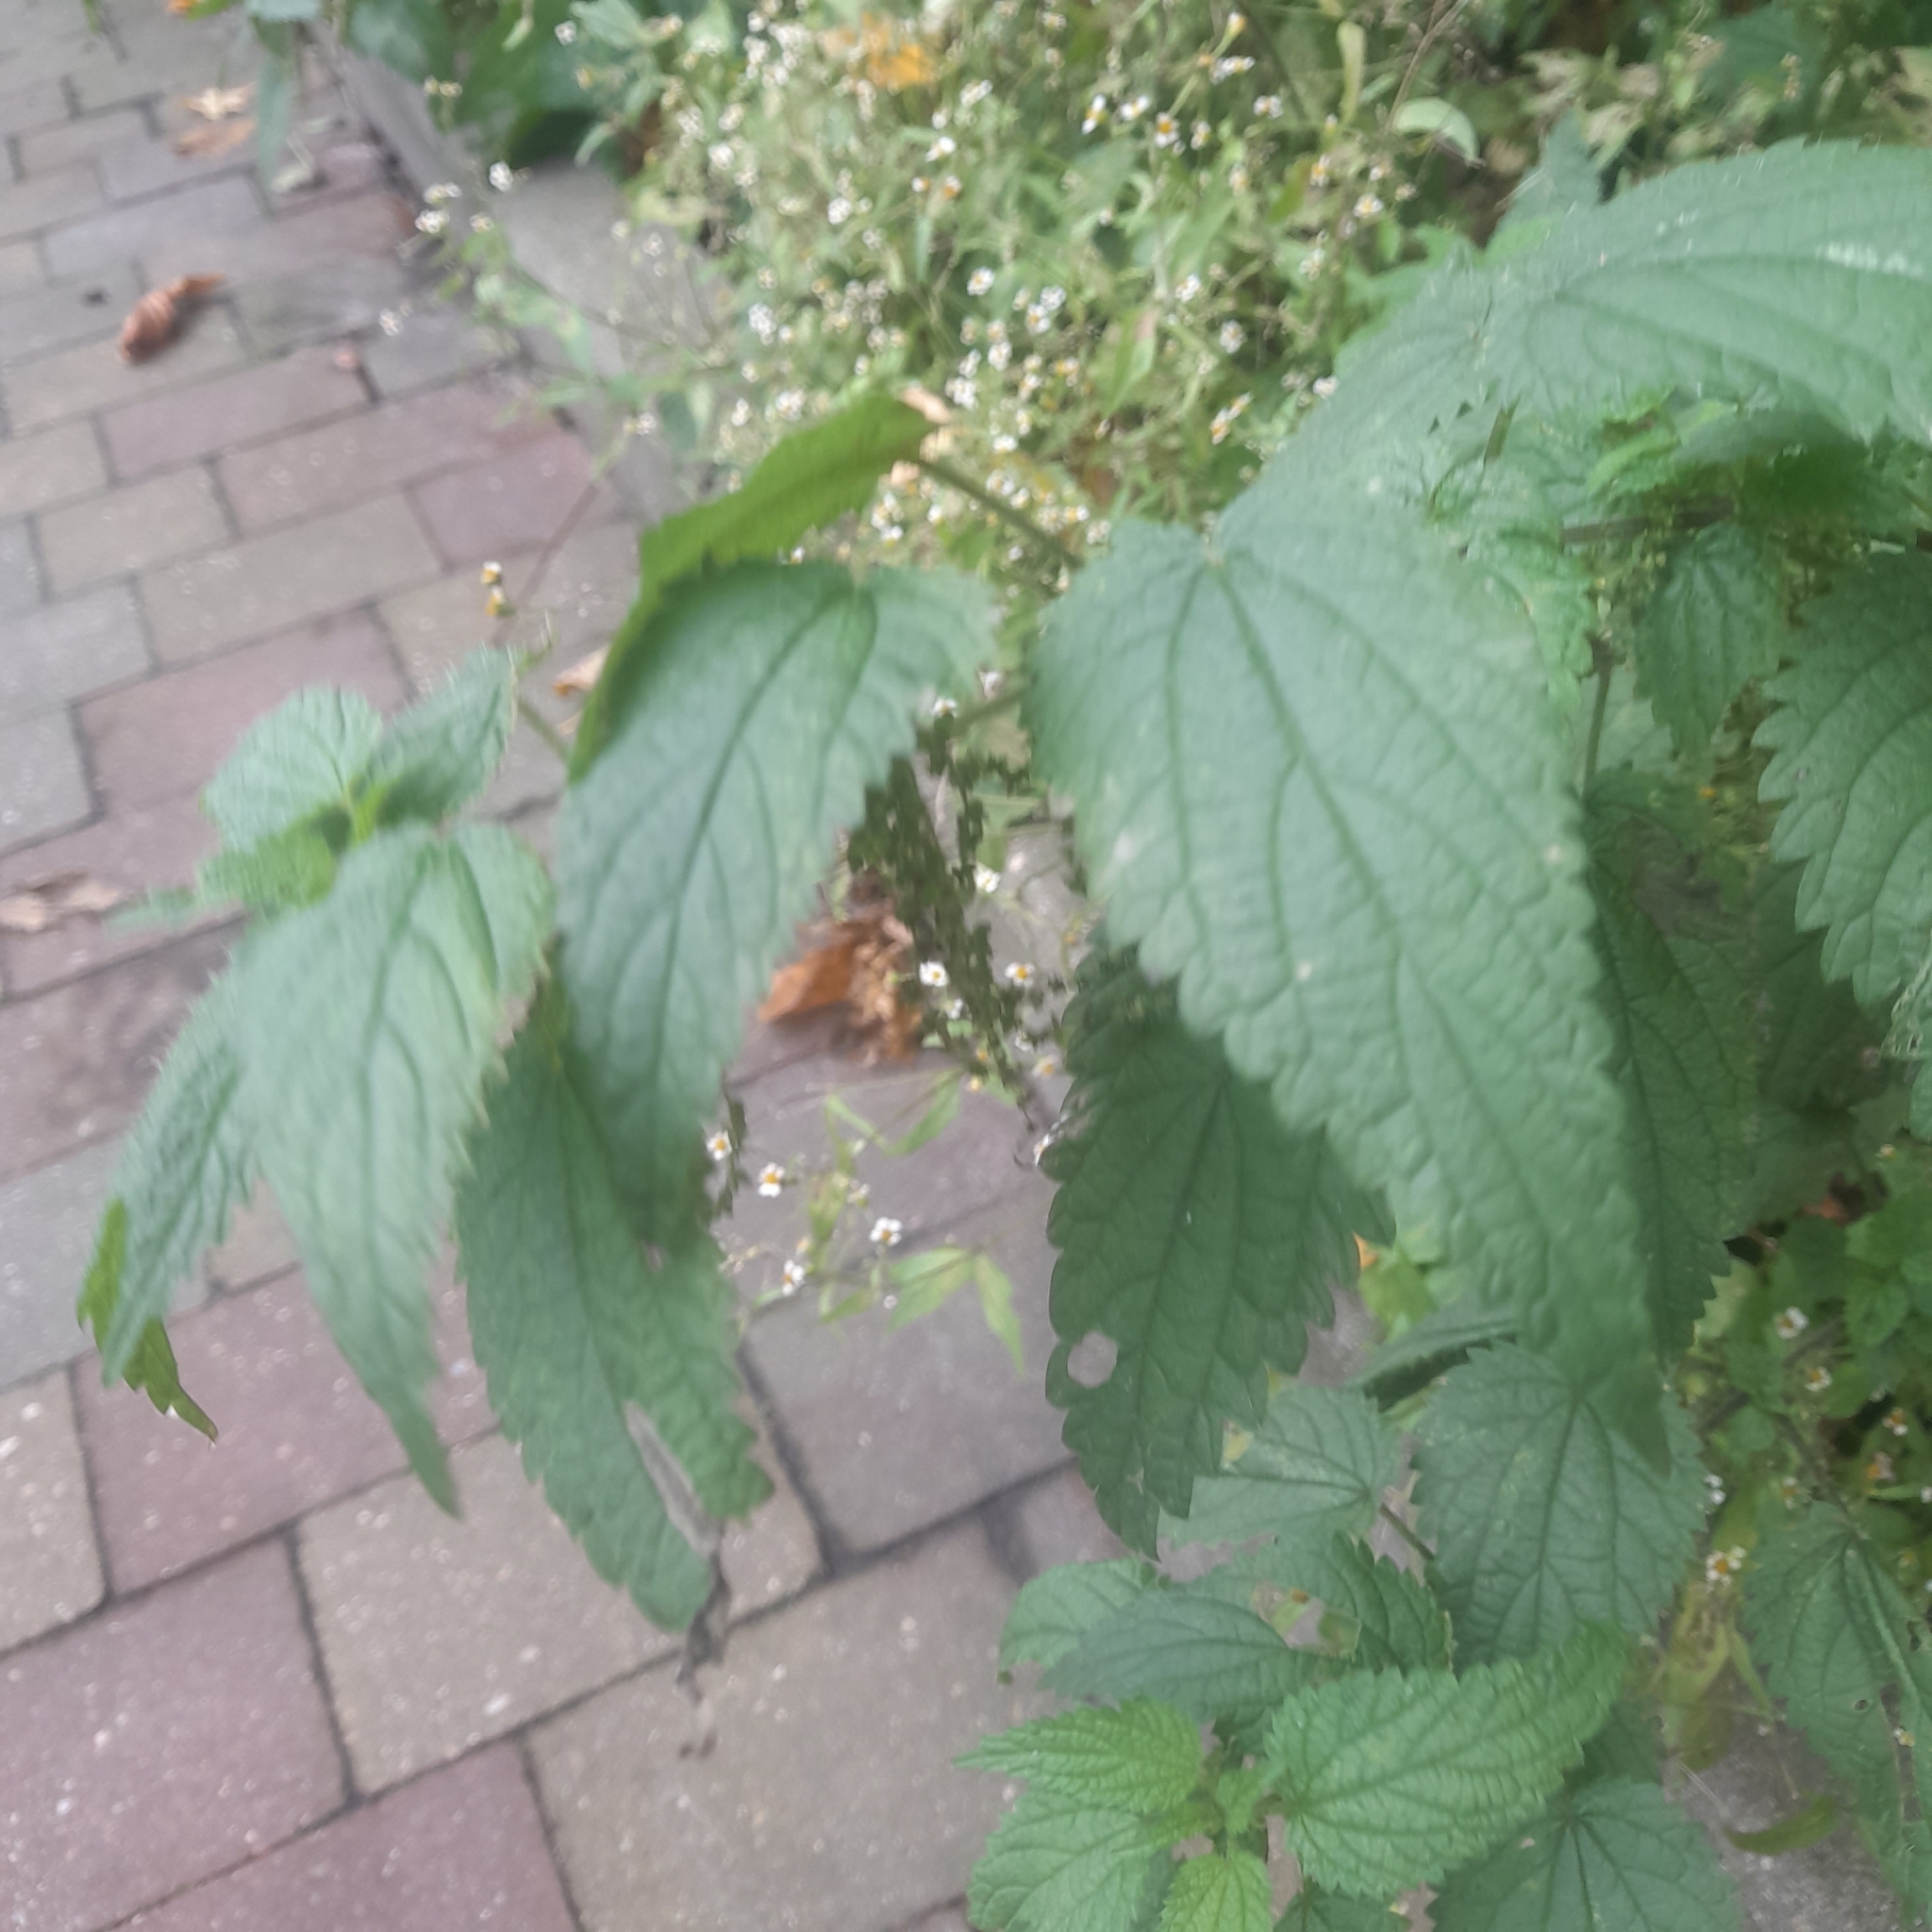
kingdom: Plantae
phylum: Tracheophyta
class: Magnoliopsida
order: Rosales
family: Urticaceae
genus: Urtica
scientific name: Urtica dioica
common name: Common nettle
